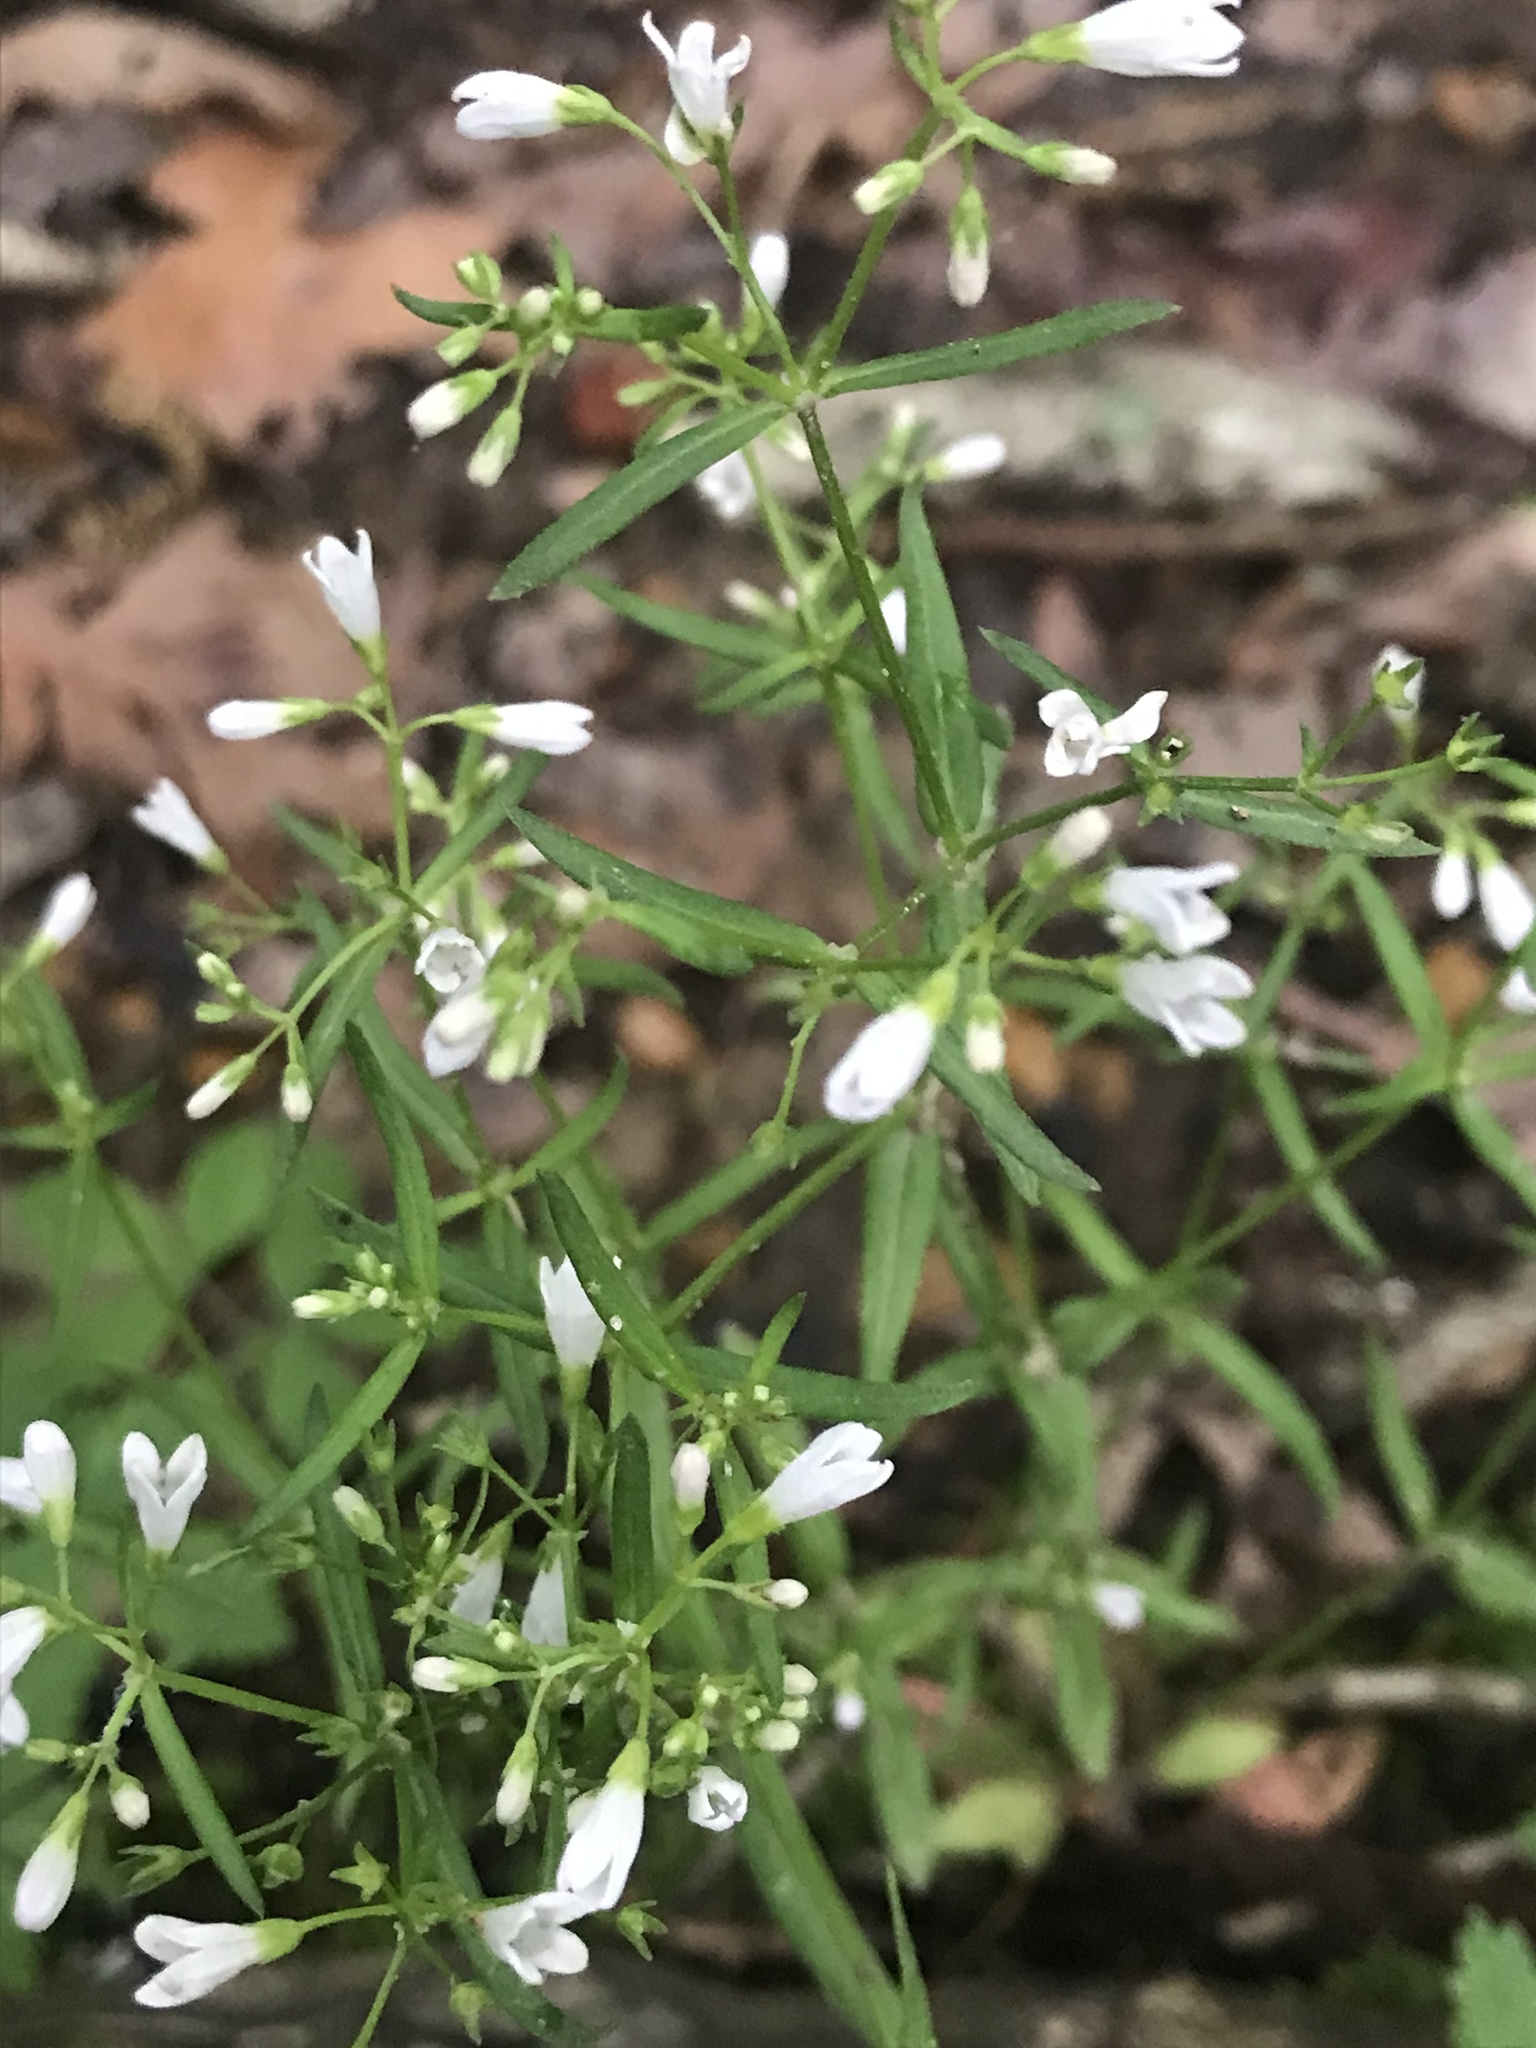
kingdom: Plantae
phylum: Tracheophyta
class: Magnoliopsida
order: Gentianales
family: Rubiaceae
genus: Houstonia
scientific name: Houstonia longifolia
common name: Long-leaved bluets
